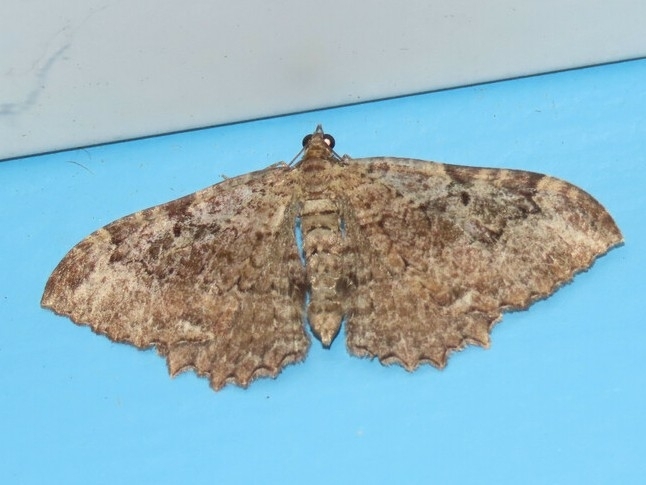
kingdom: Animalia
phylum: Arthropoda
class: Insecta
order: Lepidoptera
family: Geometridae
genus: Rheumaptera
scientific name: Rheumaptera
